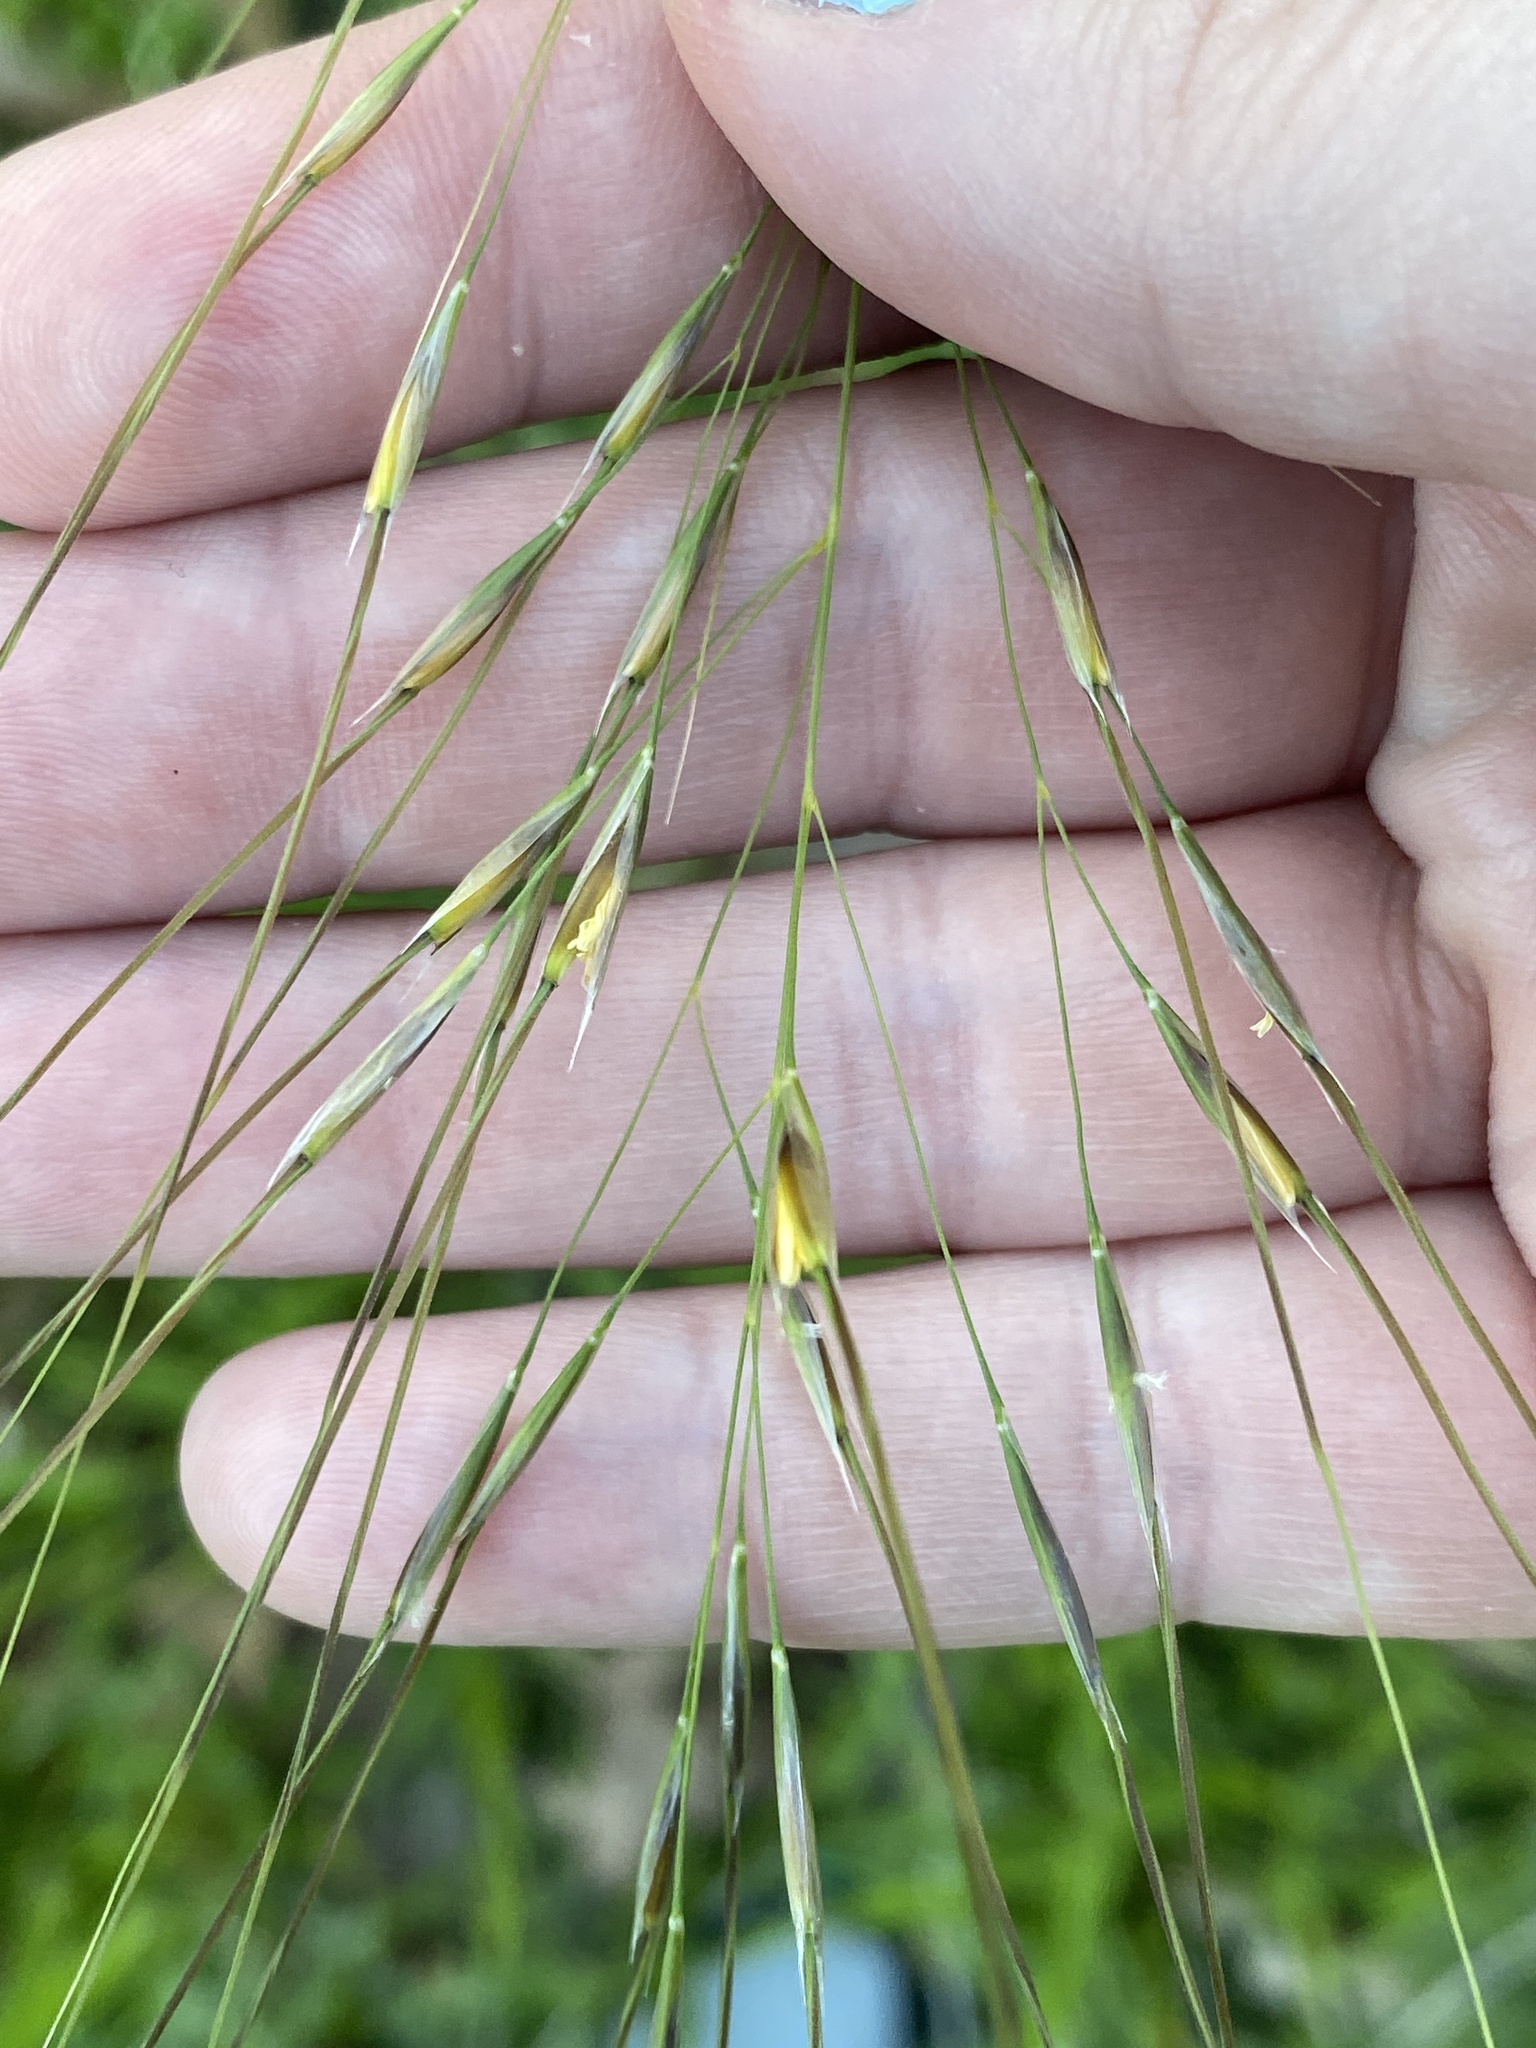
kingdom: Plantae
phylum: Tracheophyta
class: Liliopsida
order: Poales
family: Poaceae
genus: Piptochaetium
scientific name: Piptochaetium avenaceum
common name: Black bunchgrass
